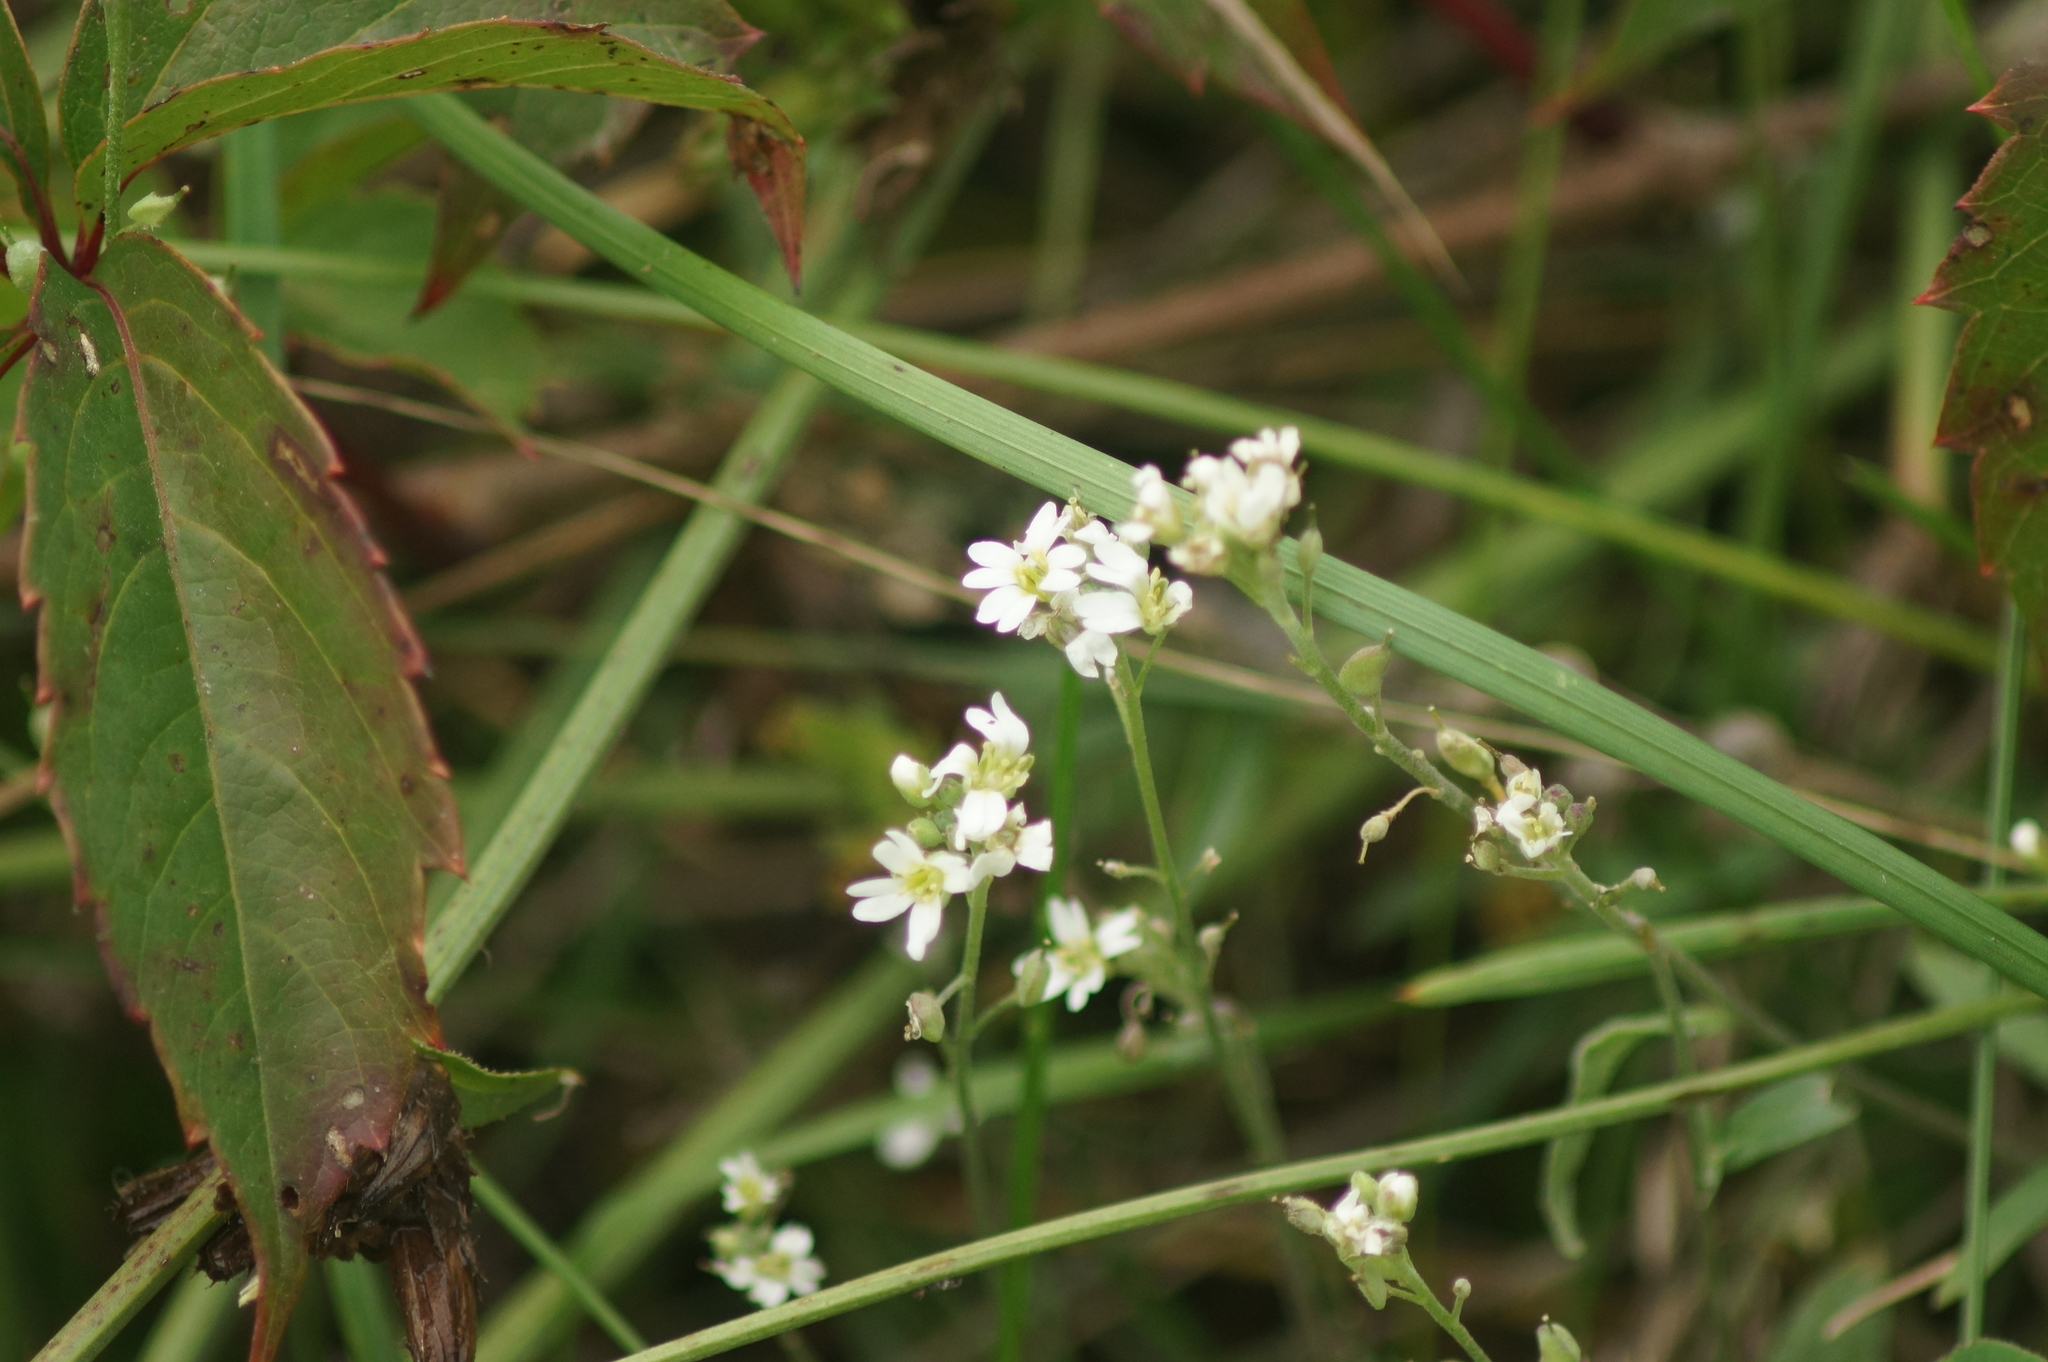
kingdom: Plantae
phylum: Tracheophyta
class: Magnoliopsida
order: Brassicales
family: Brassicaceae
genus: Berteroa
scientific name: Berteroa incana
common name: Hoary alison
